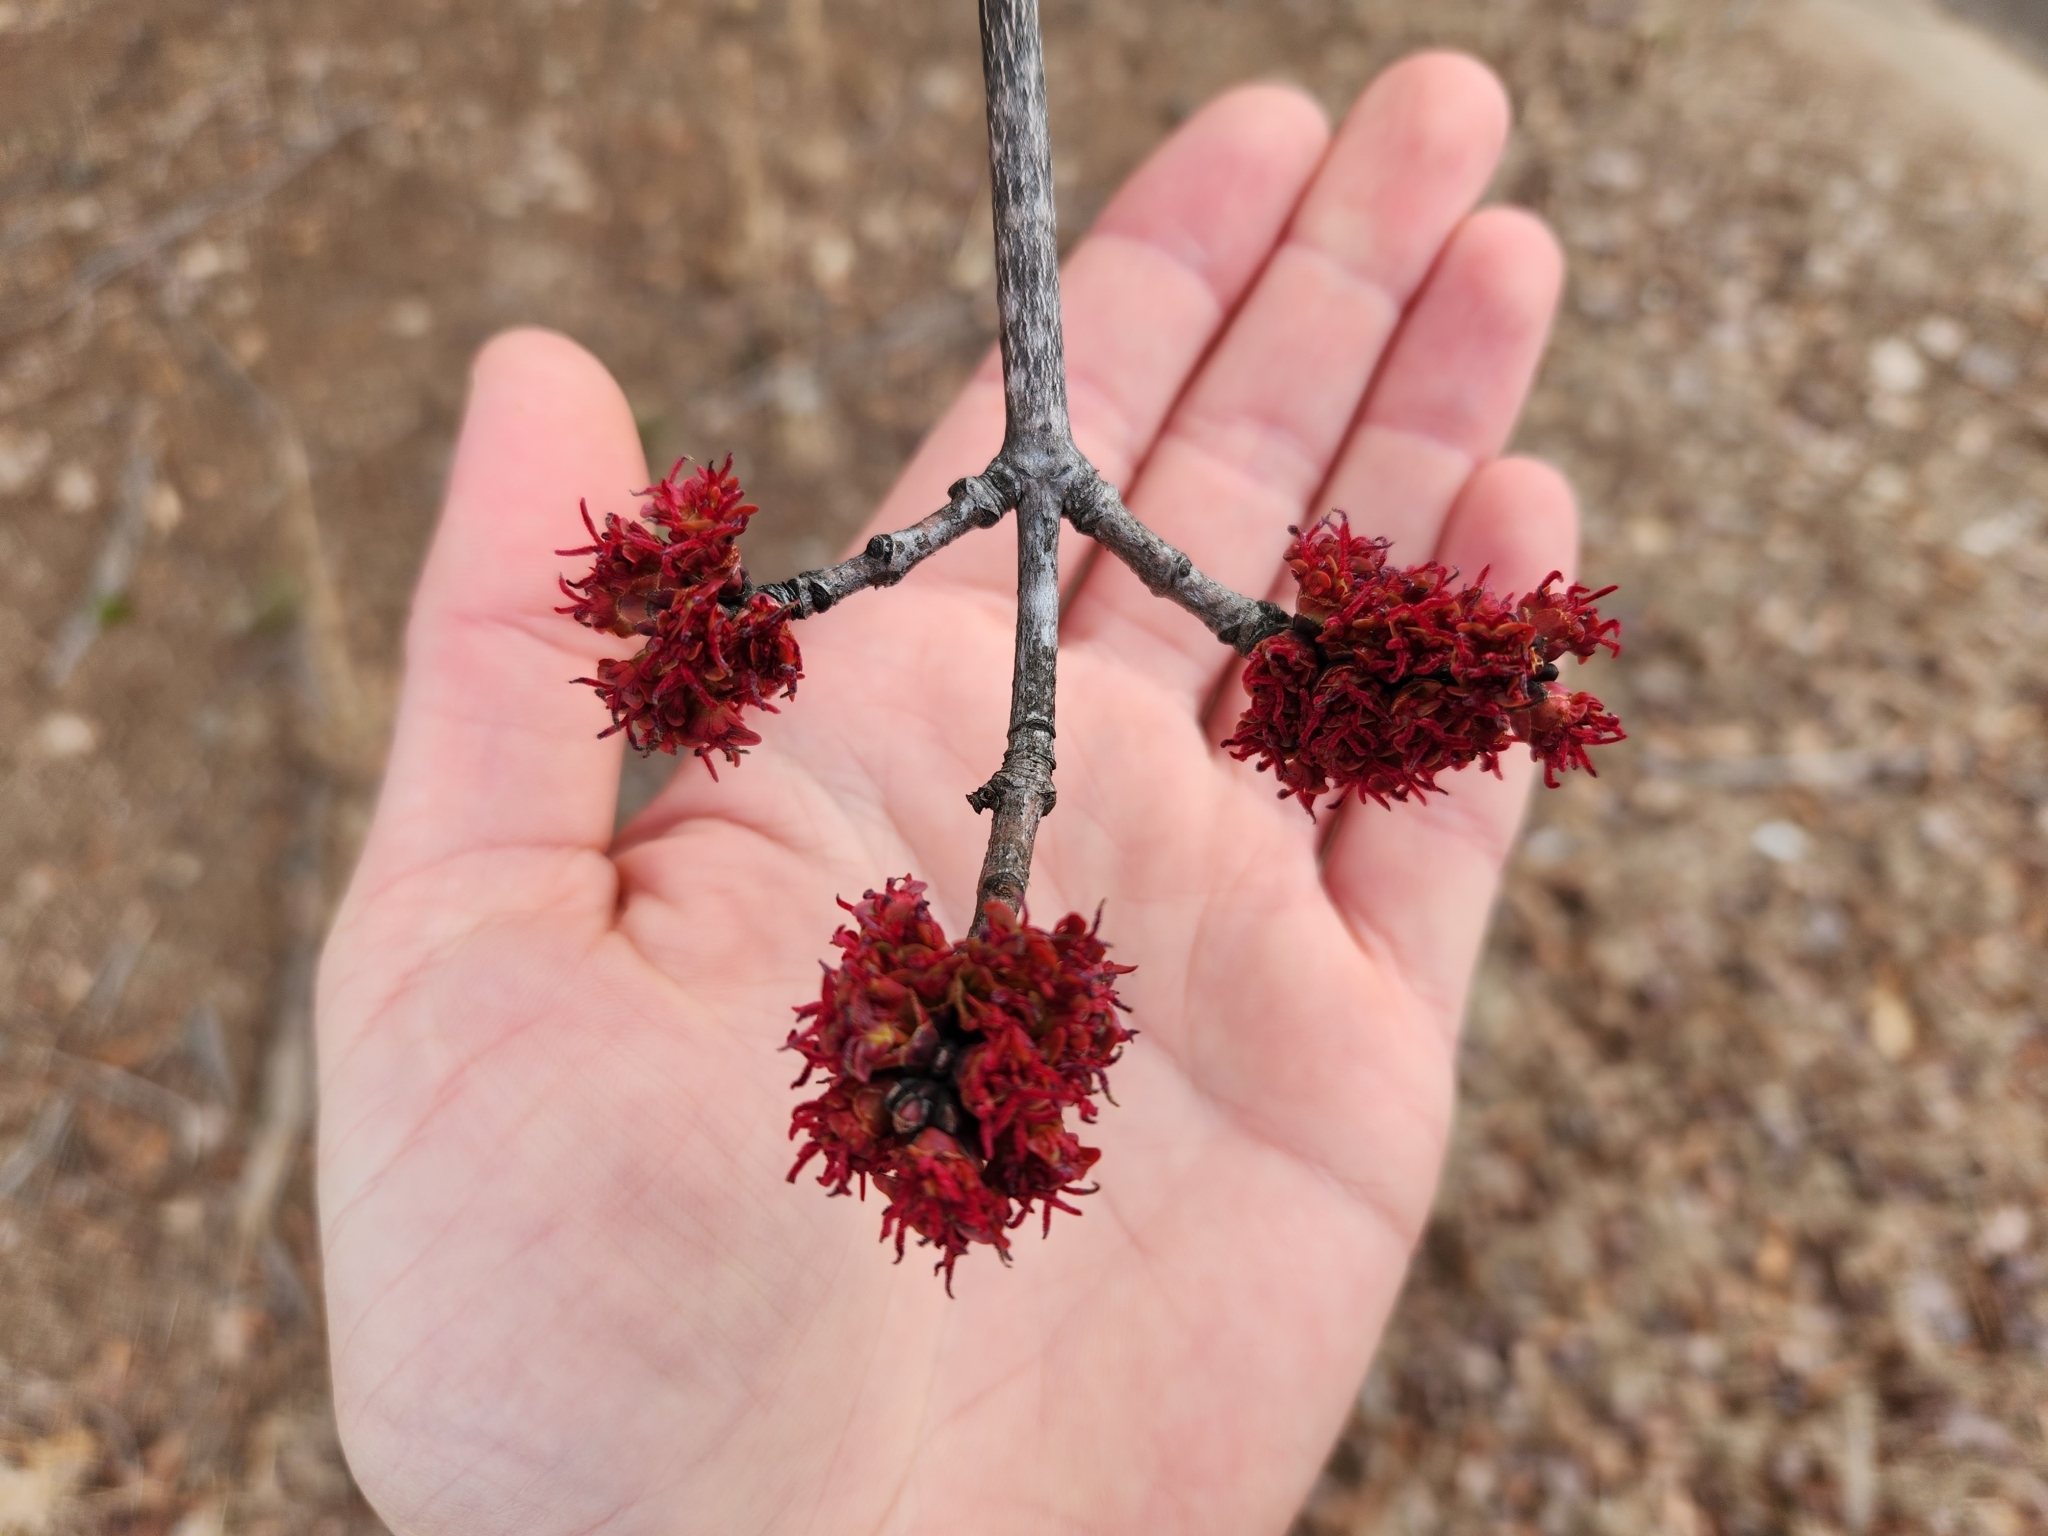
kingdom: Plantae
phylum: Tracheophyta
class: Magnoliopsida
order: Sapindales
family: Sapindaceae
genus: Acer
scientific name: Acer rubrum
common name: Red maple
